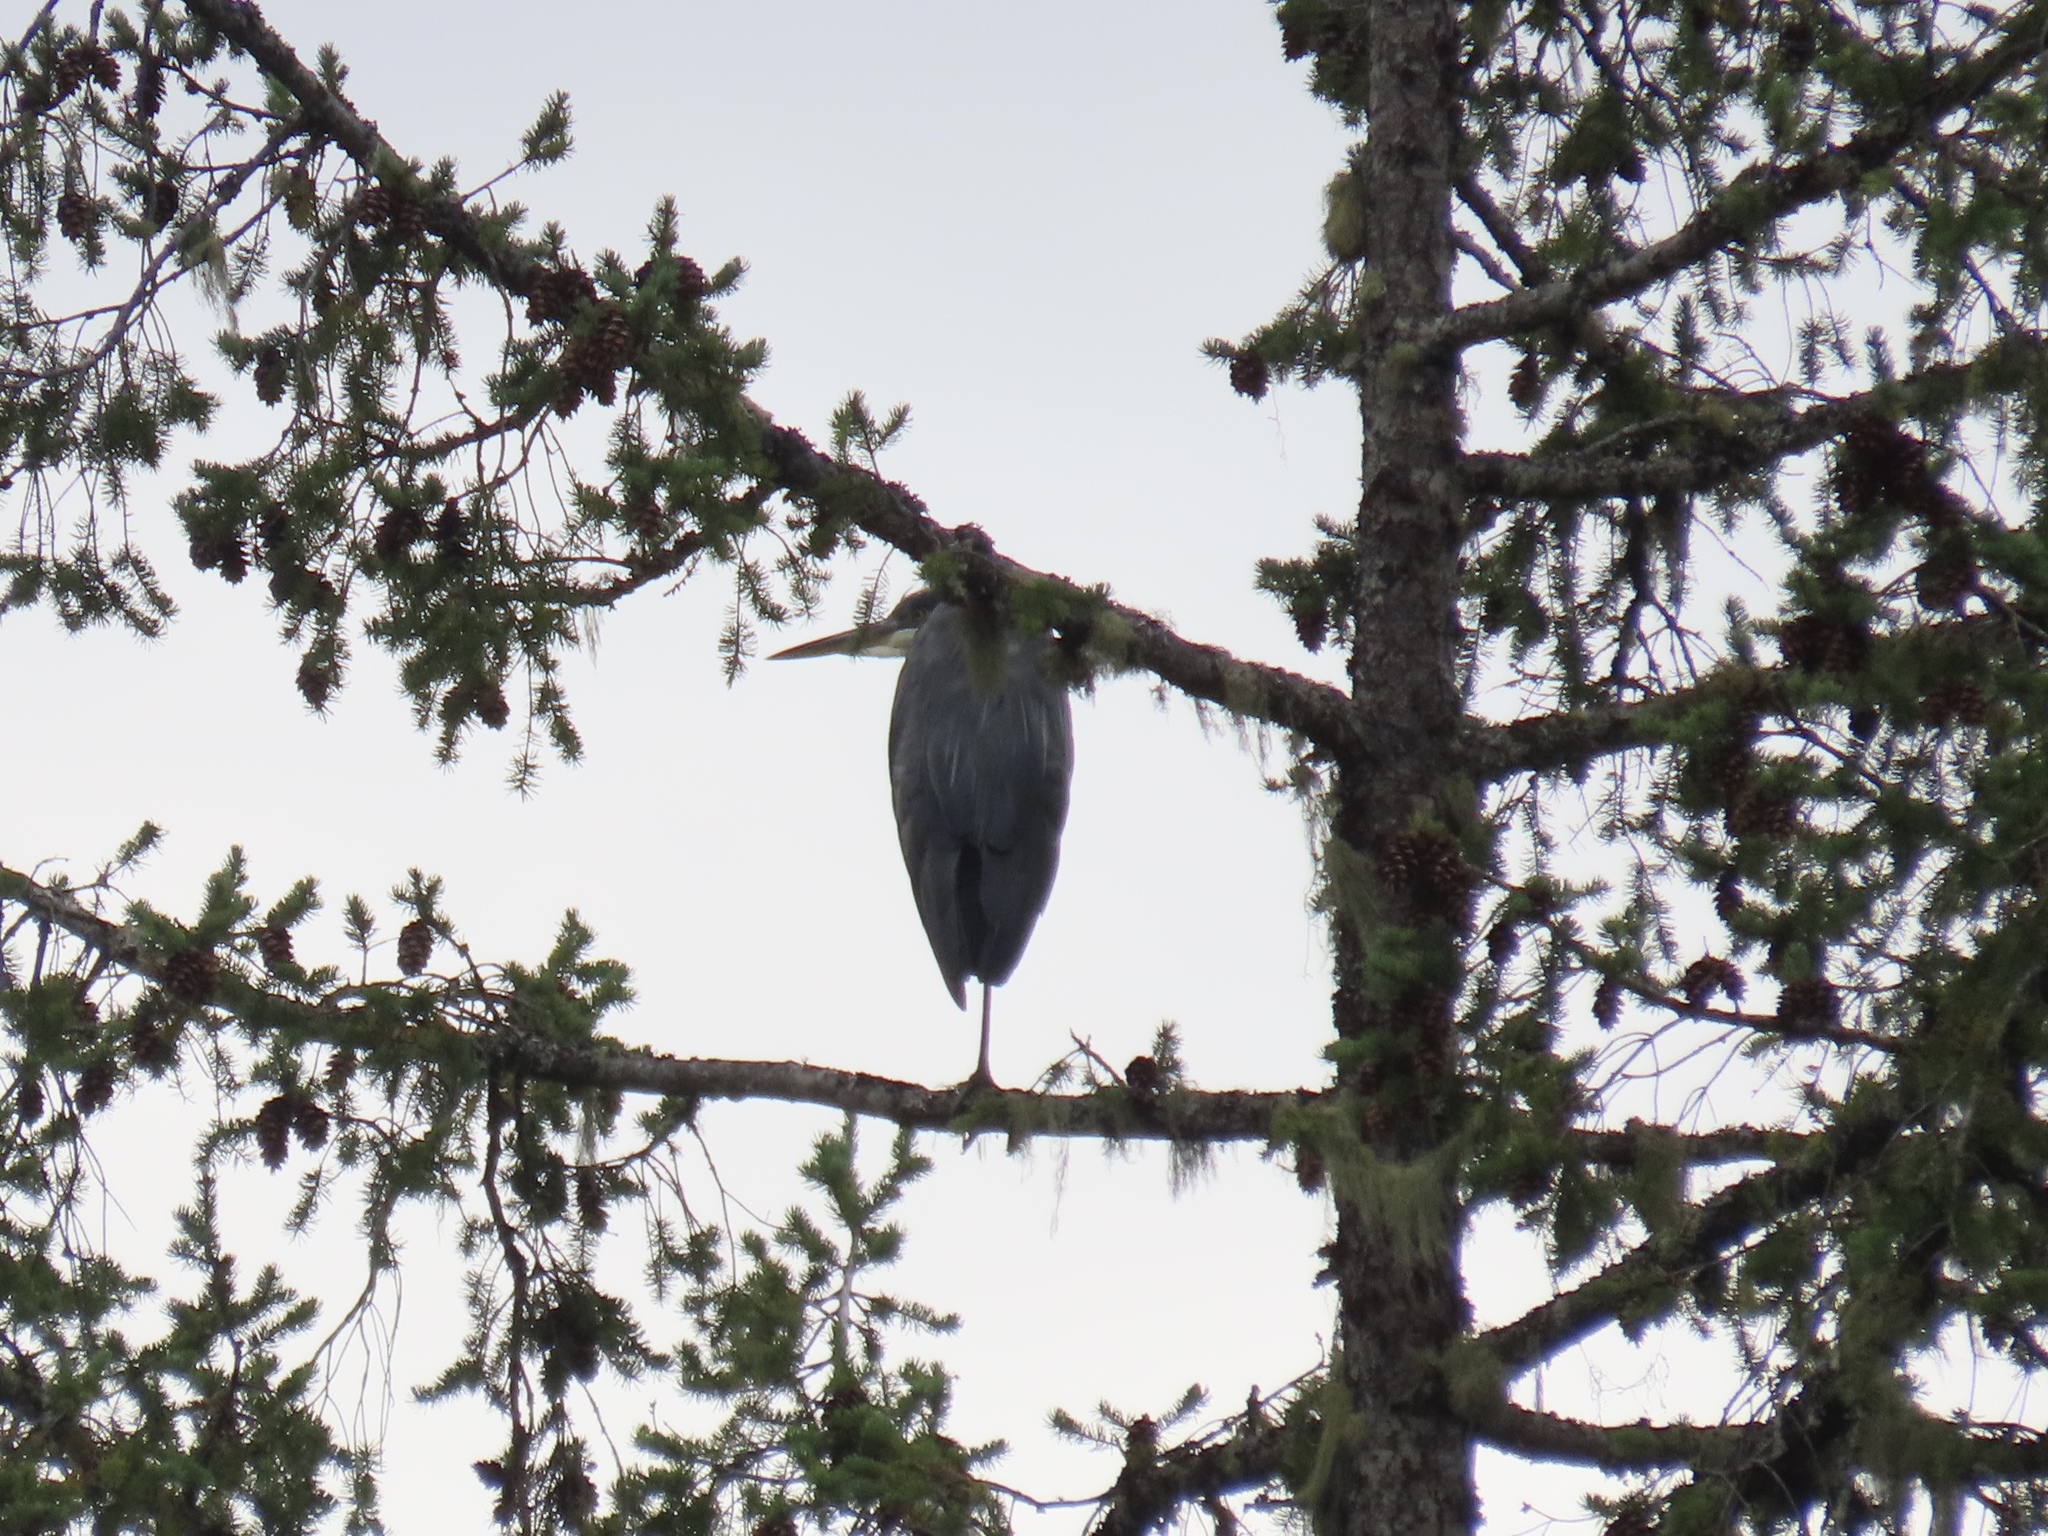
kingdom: Animalia
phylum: Chordata
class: Aves
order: Pelecaniformes
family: Ardeidae
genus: Ardea
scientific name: Ardea herodias
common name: Great blue heron
